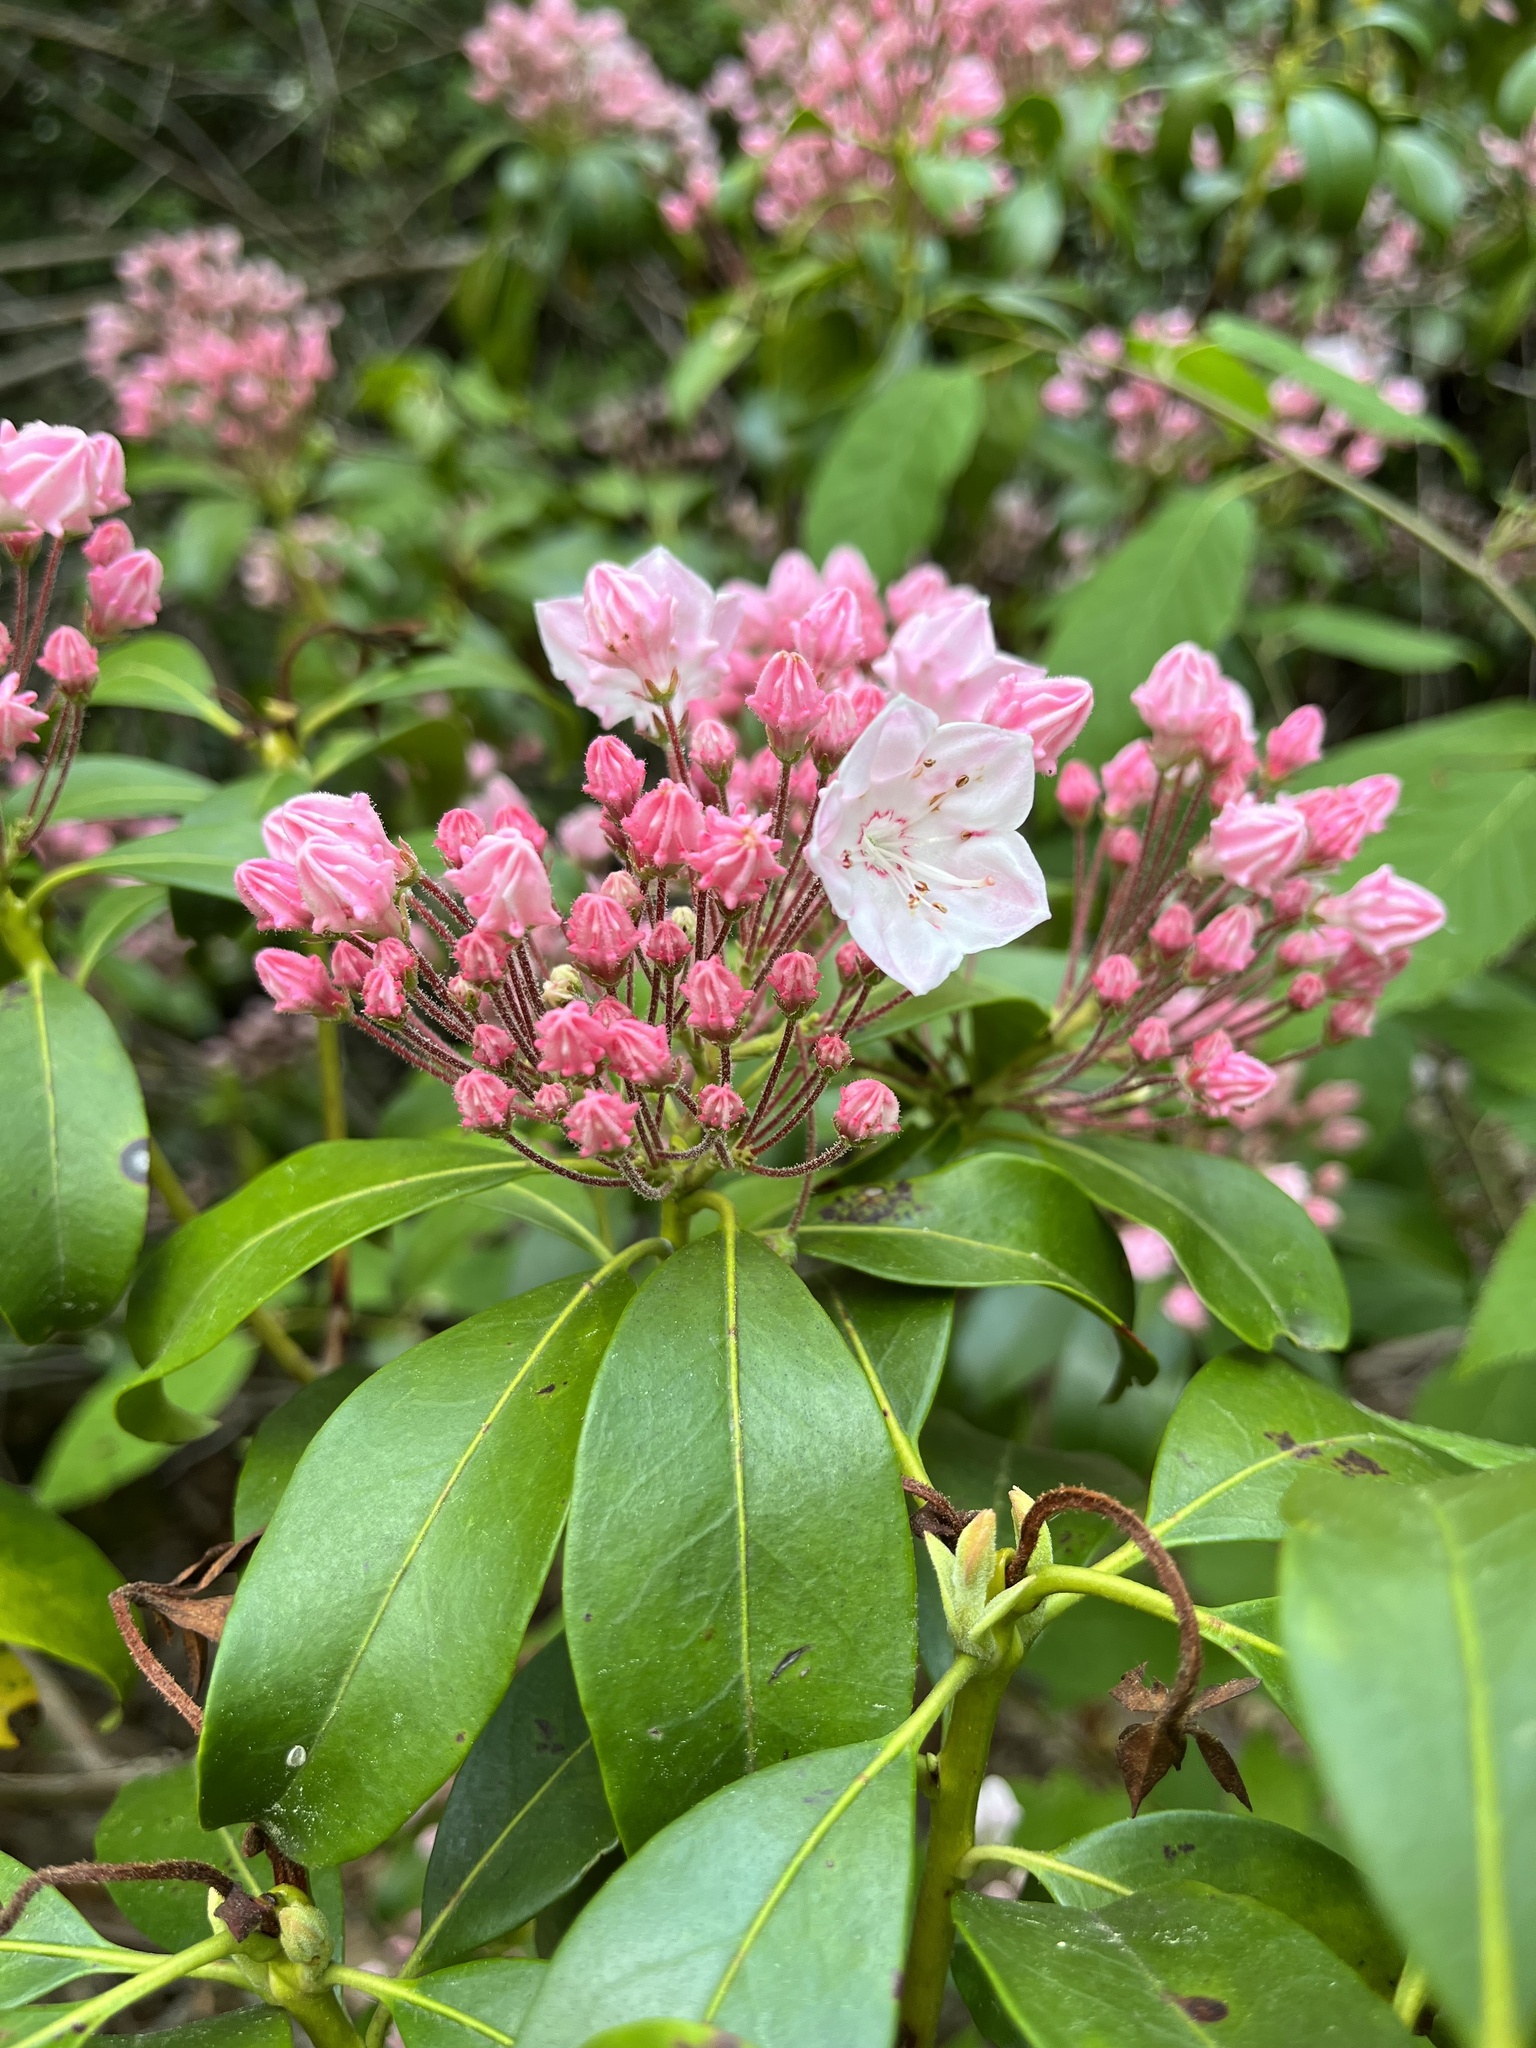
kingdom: Plantae
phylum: Tracheophyta
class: Magnoliopsida
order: Ericales
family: Ericaceae
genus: Kalmia
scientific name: Kalmia latifolia
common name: Mountain-laurel
